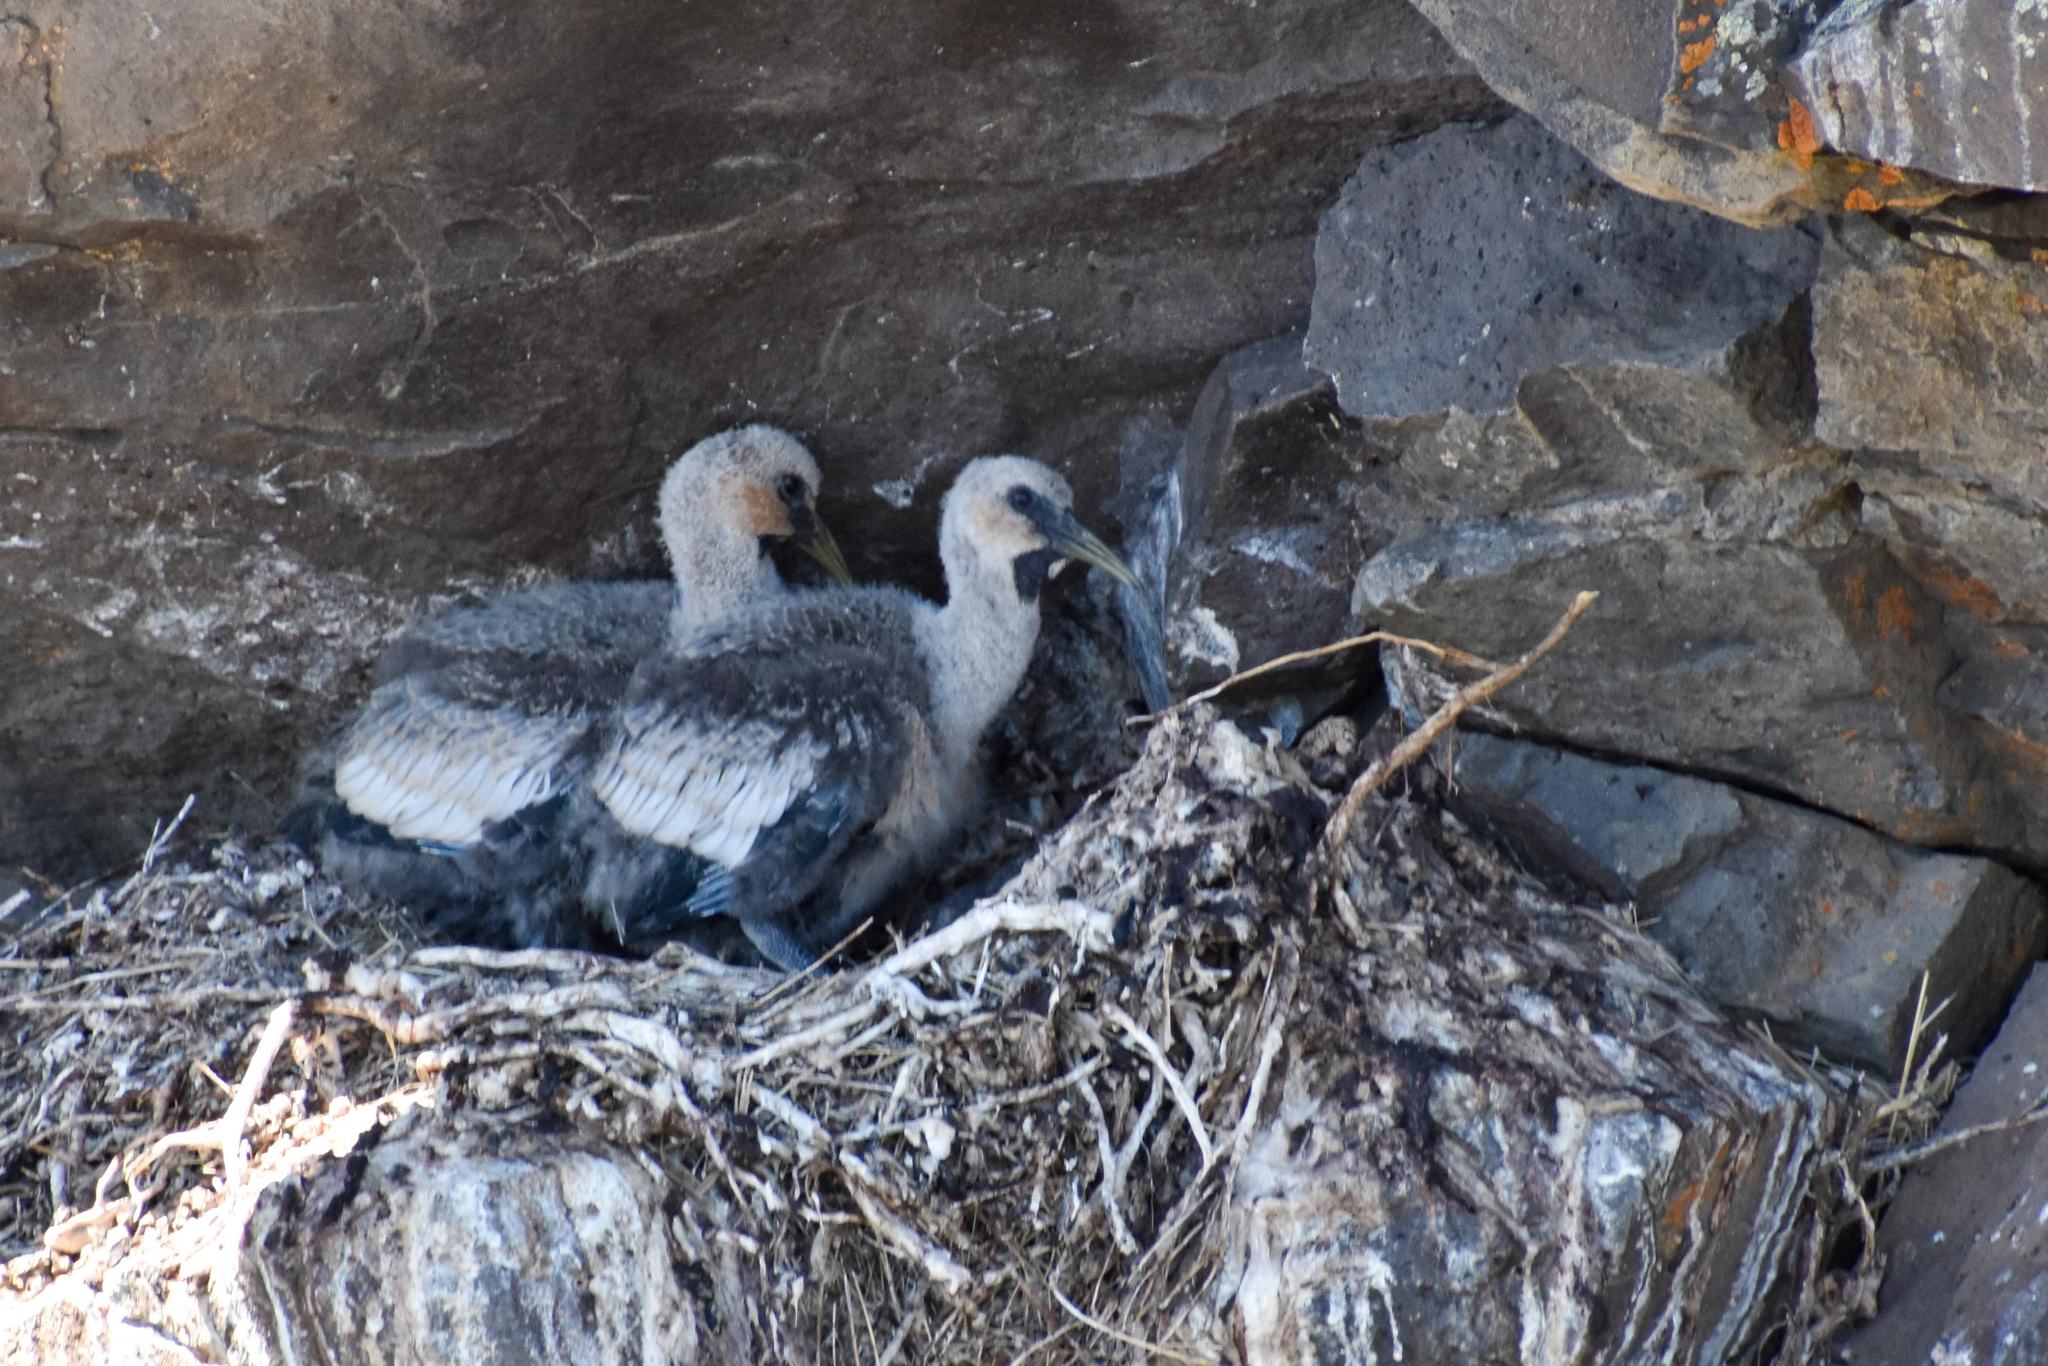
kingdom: Animalia
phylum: Chordata
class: Aves
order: Pelecaniformes
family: Threskiornithidae
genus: Theristicus
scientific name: Theristicus melanopis
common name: Black-faced ibis
